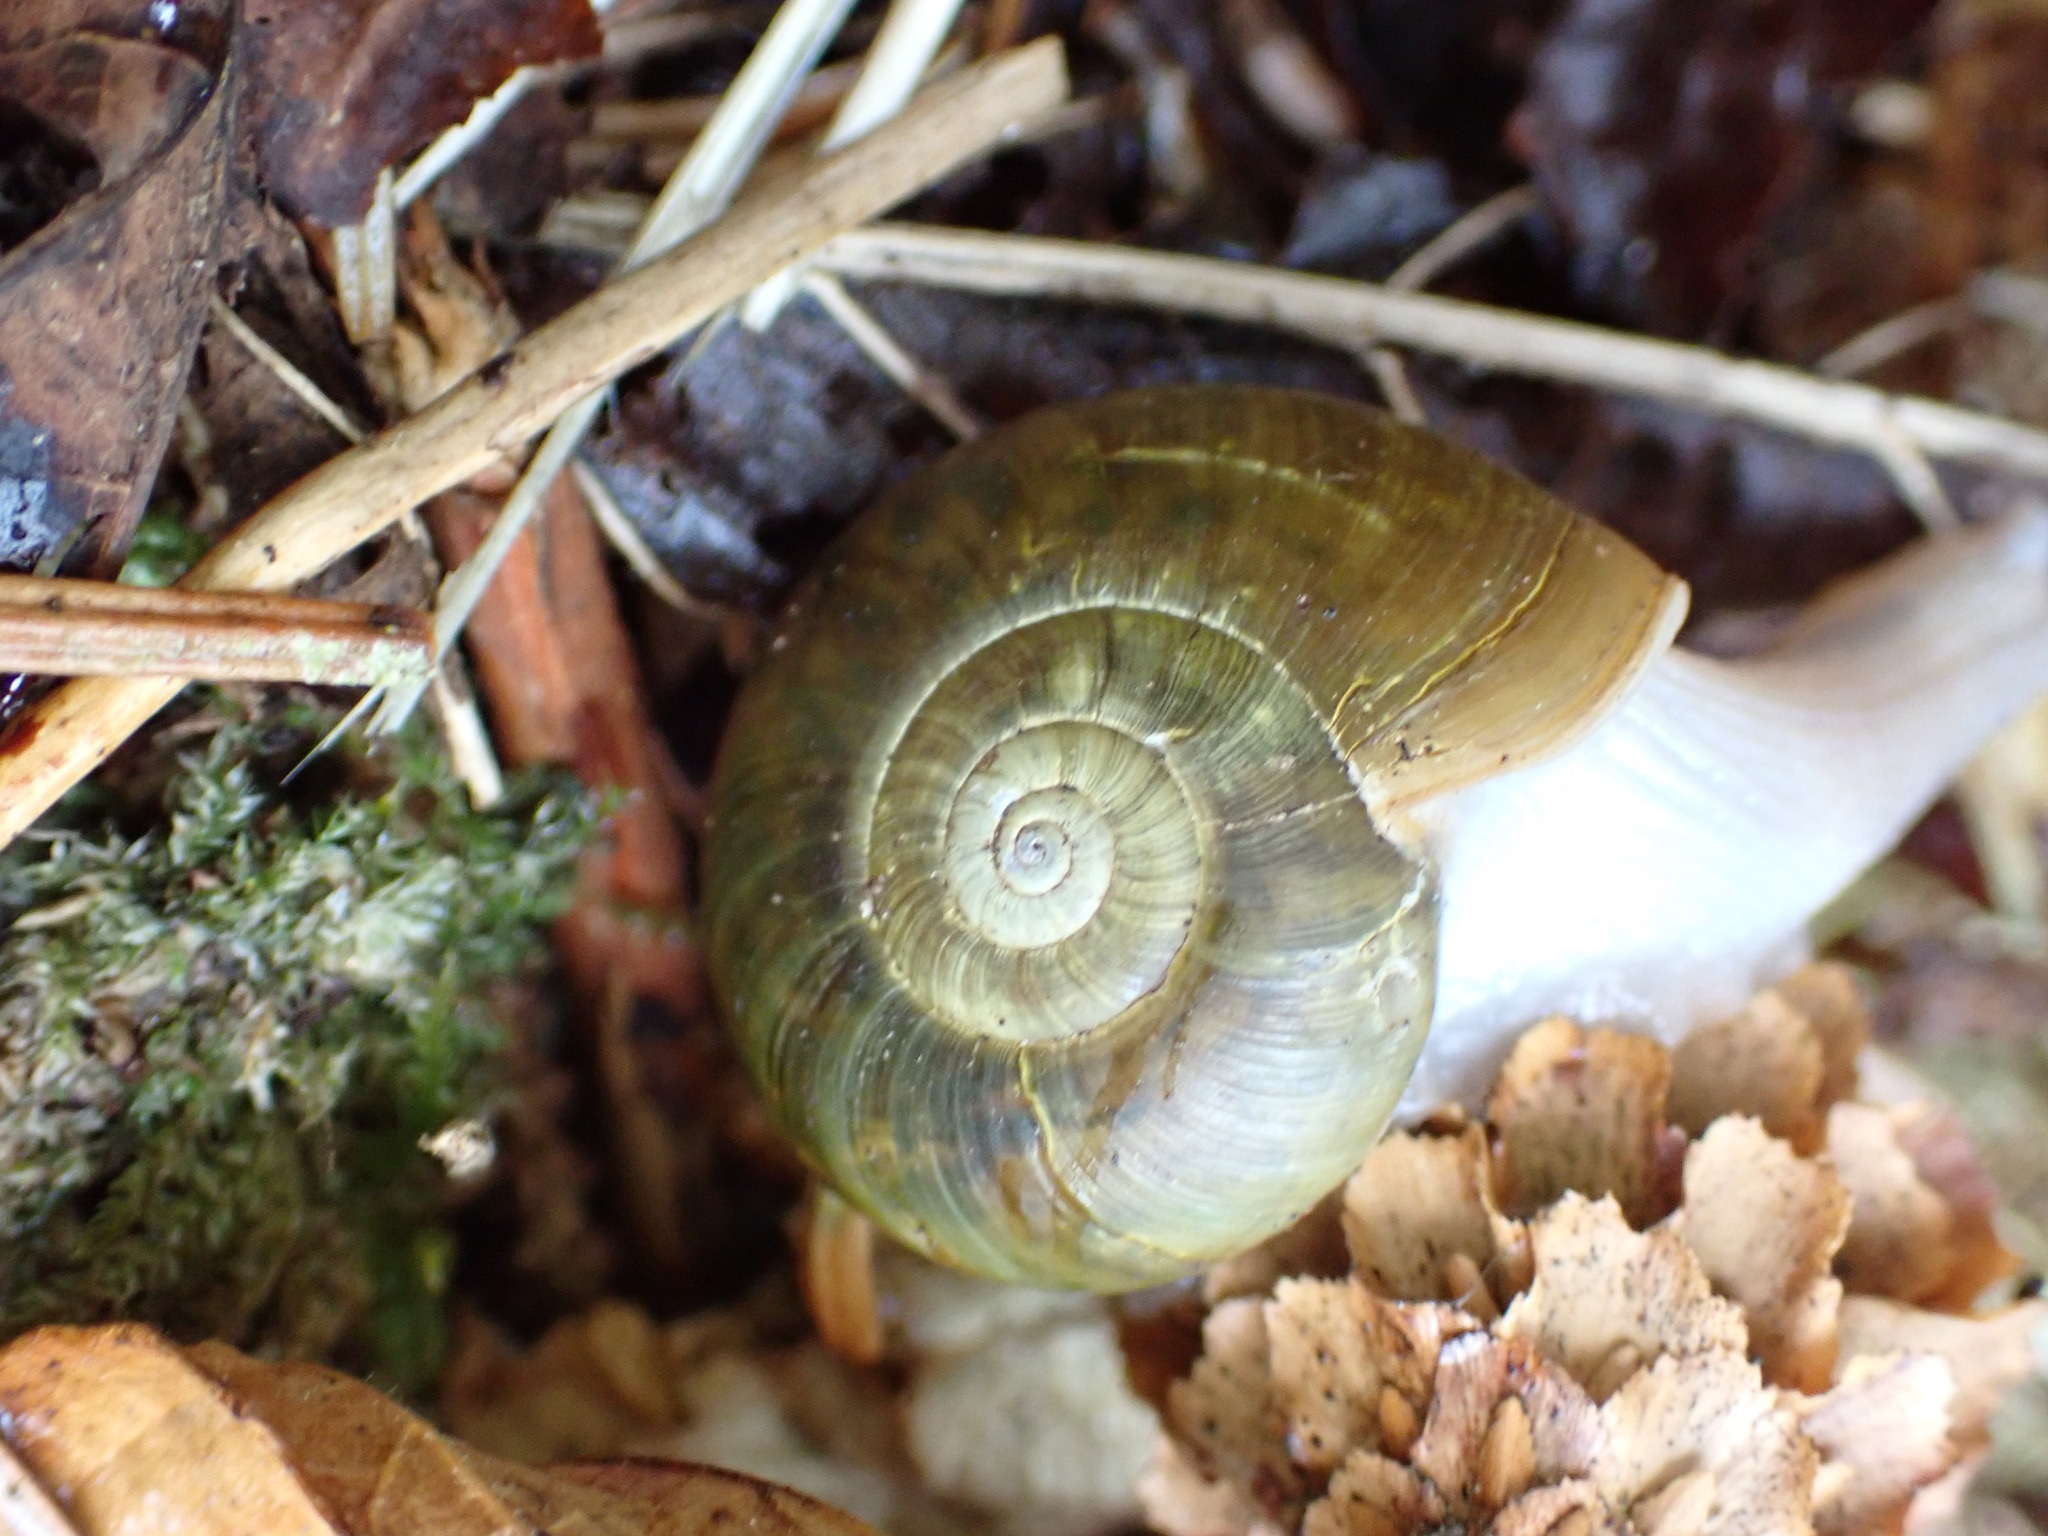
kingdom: Animalia
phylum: Mollusca
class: Gastropoda
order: Stylommatophora
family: Haplotrematidae
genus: Haplotrema
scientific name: Haplotrema vancouverense
